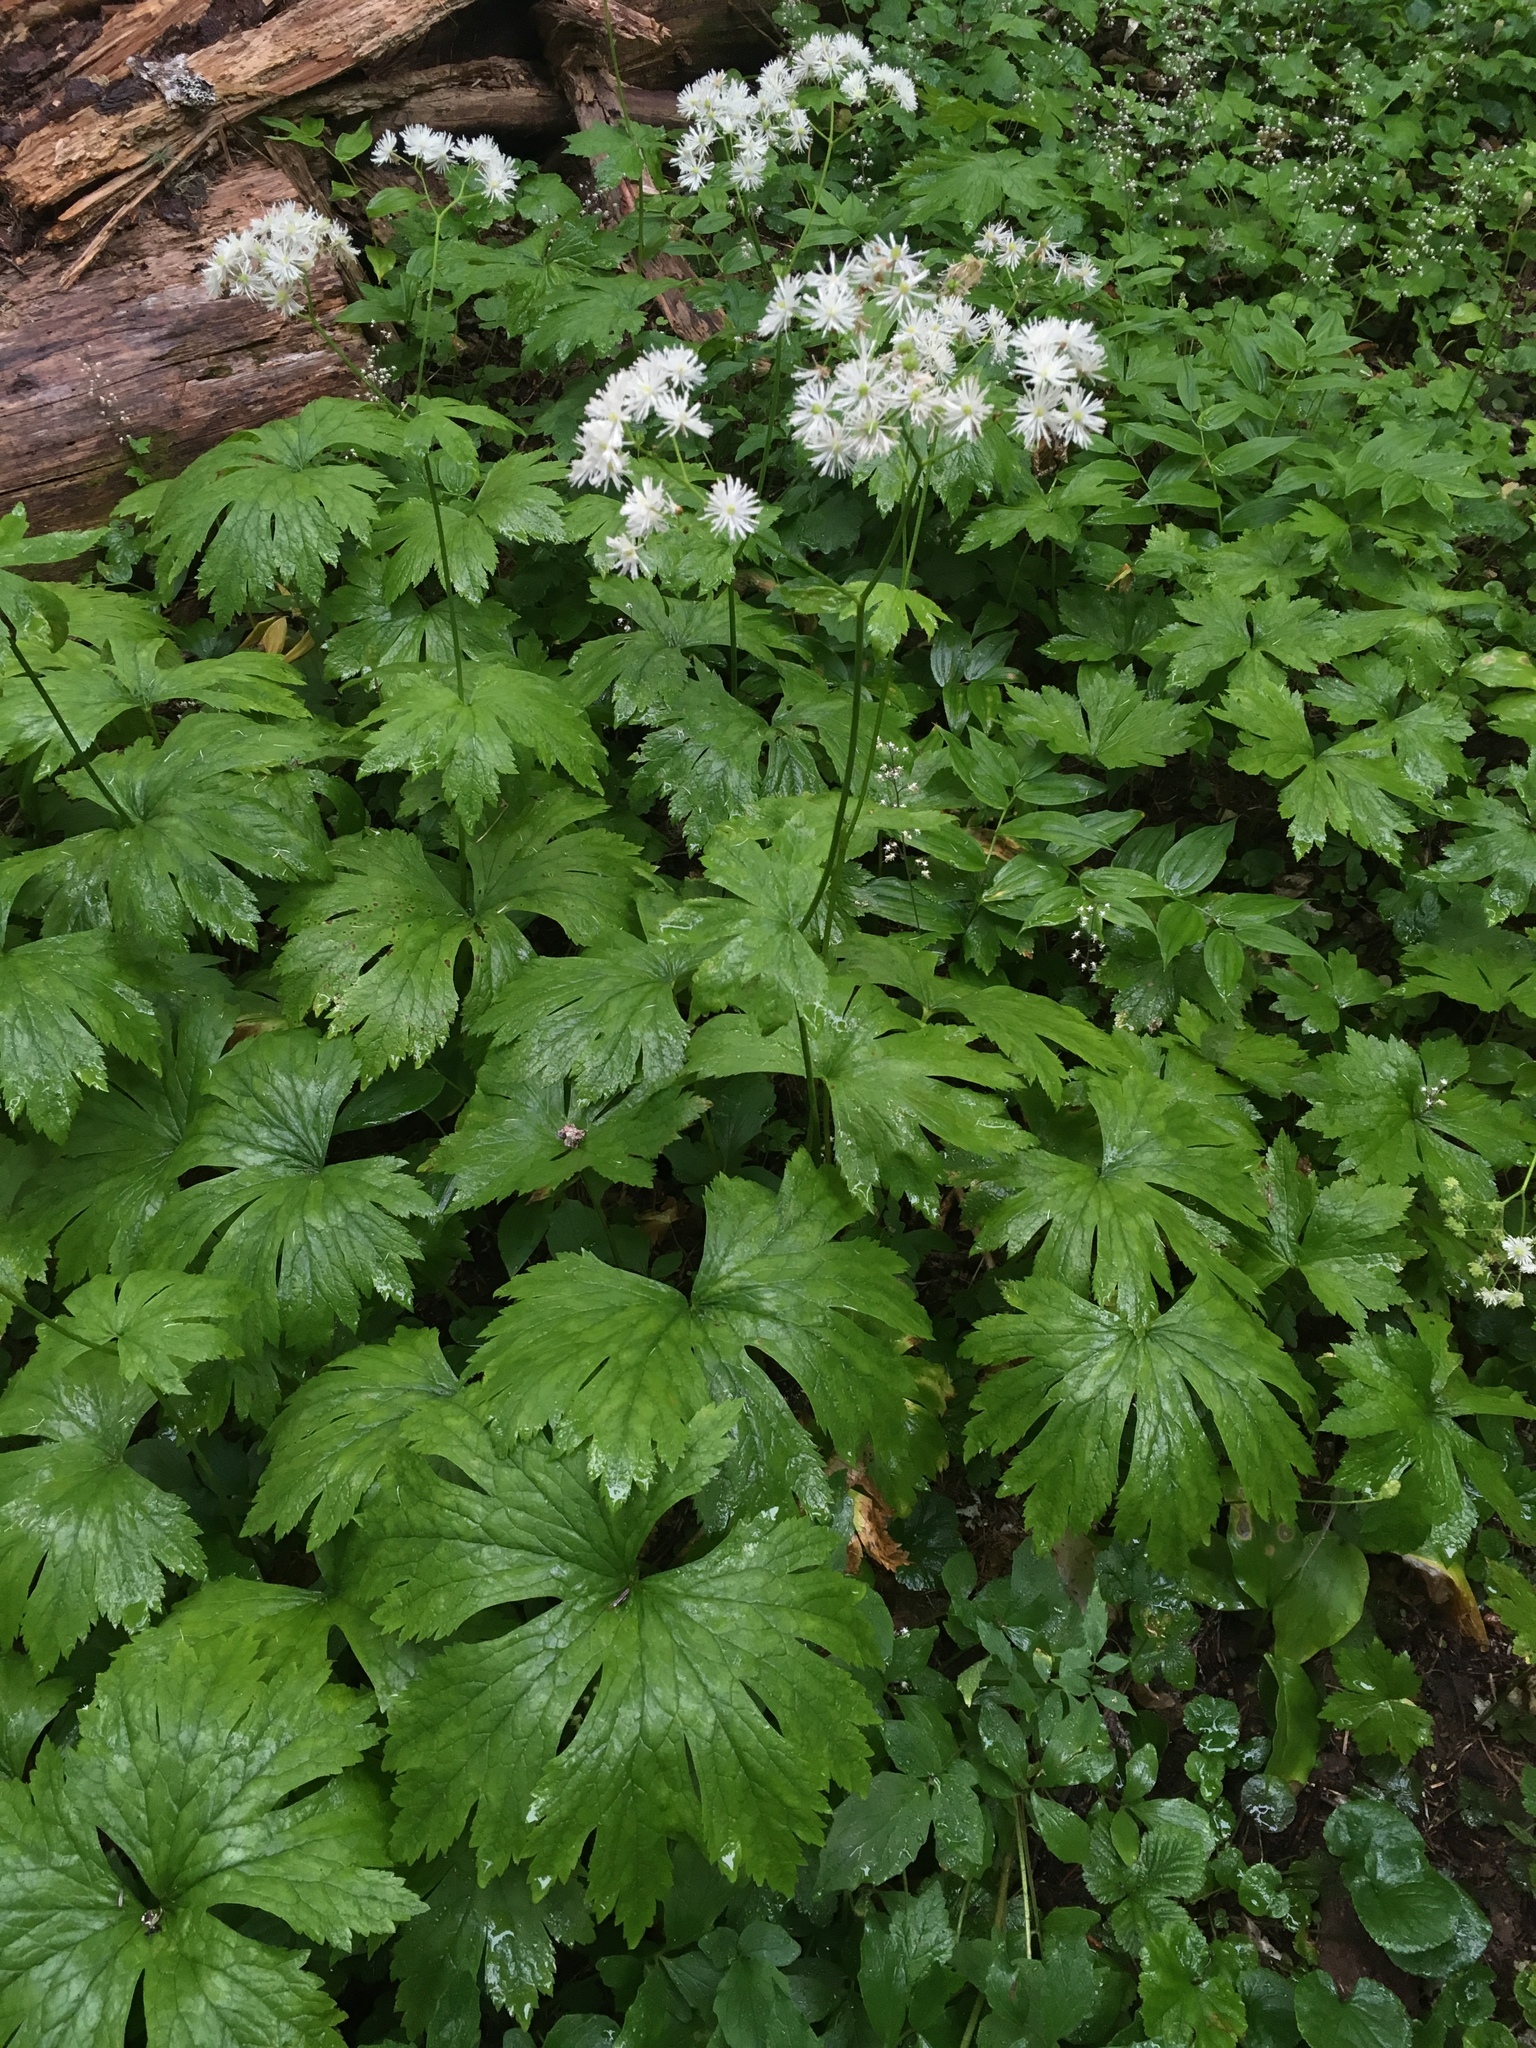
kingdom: Plantae
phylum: Tracheophyta
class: Magnoliopsida
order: Ranunculales
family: Ranunculaceae
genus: Trautvetteria
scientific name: Trautvetteria carolinensis
